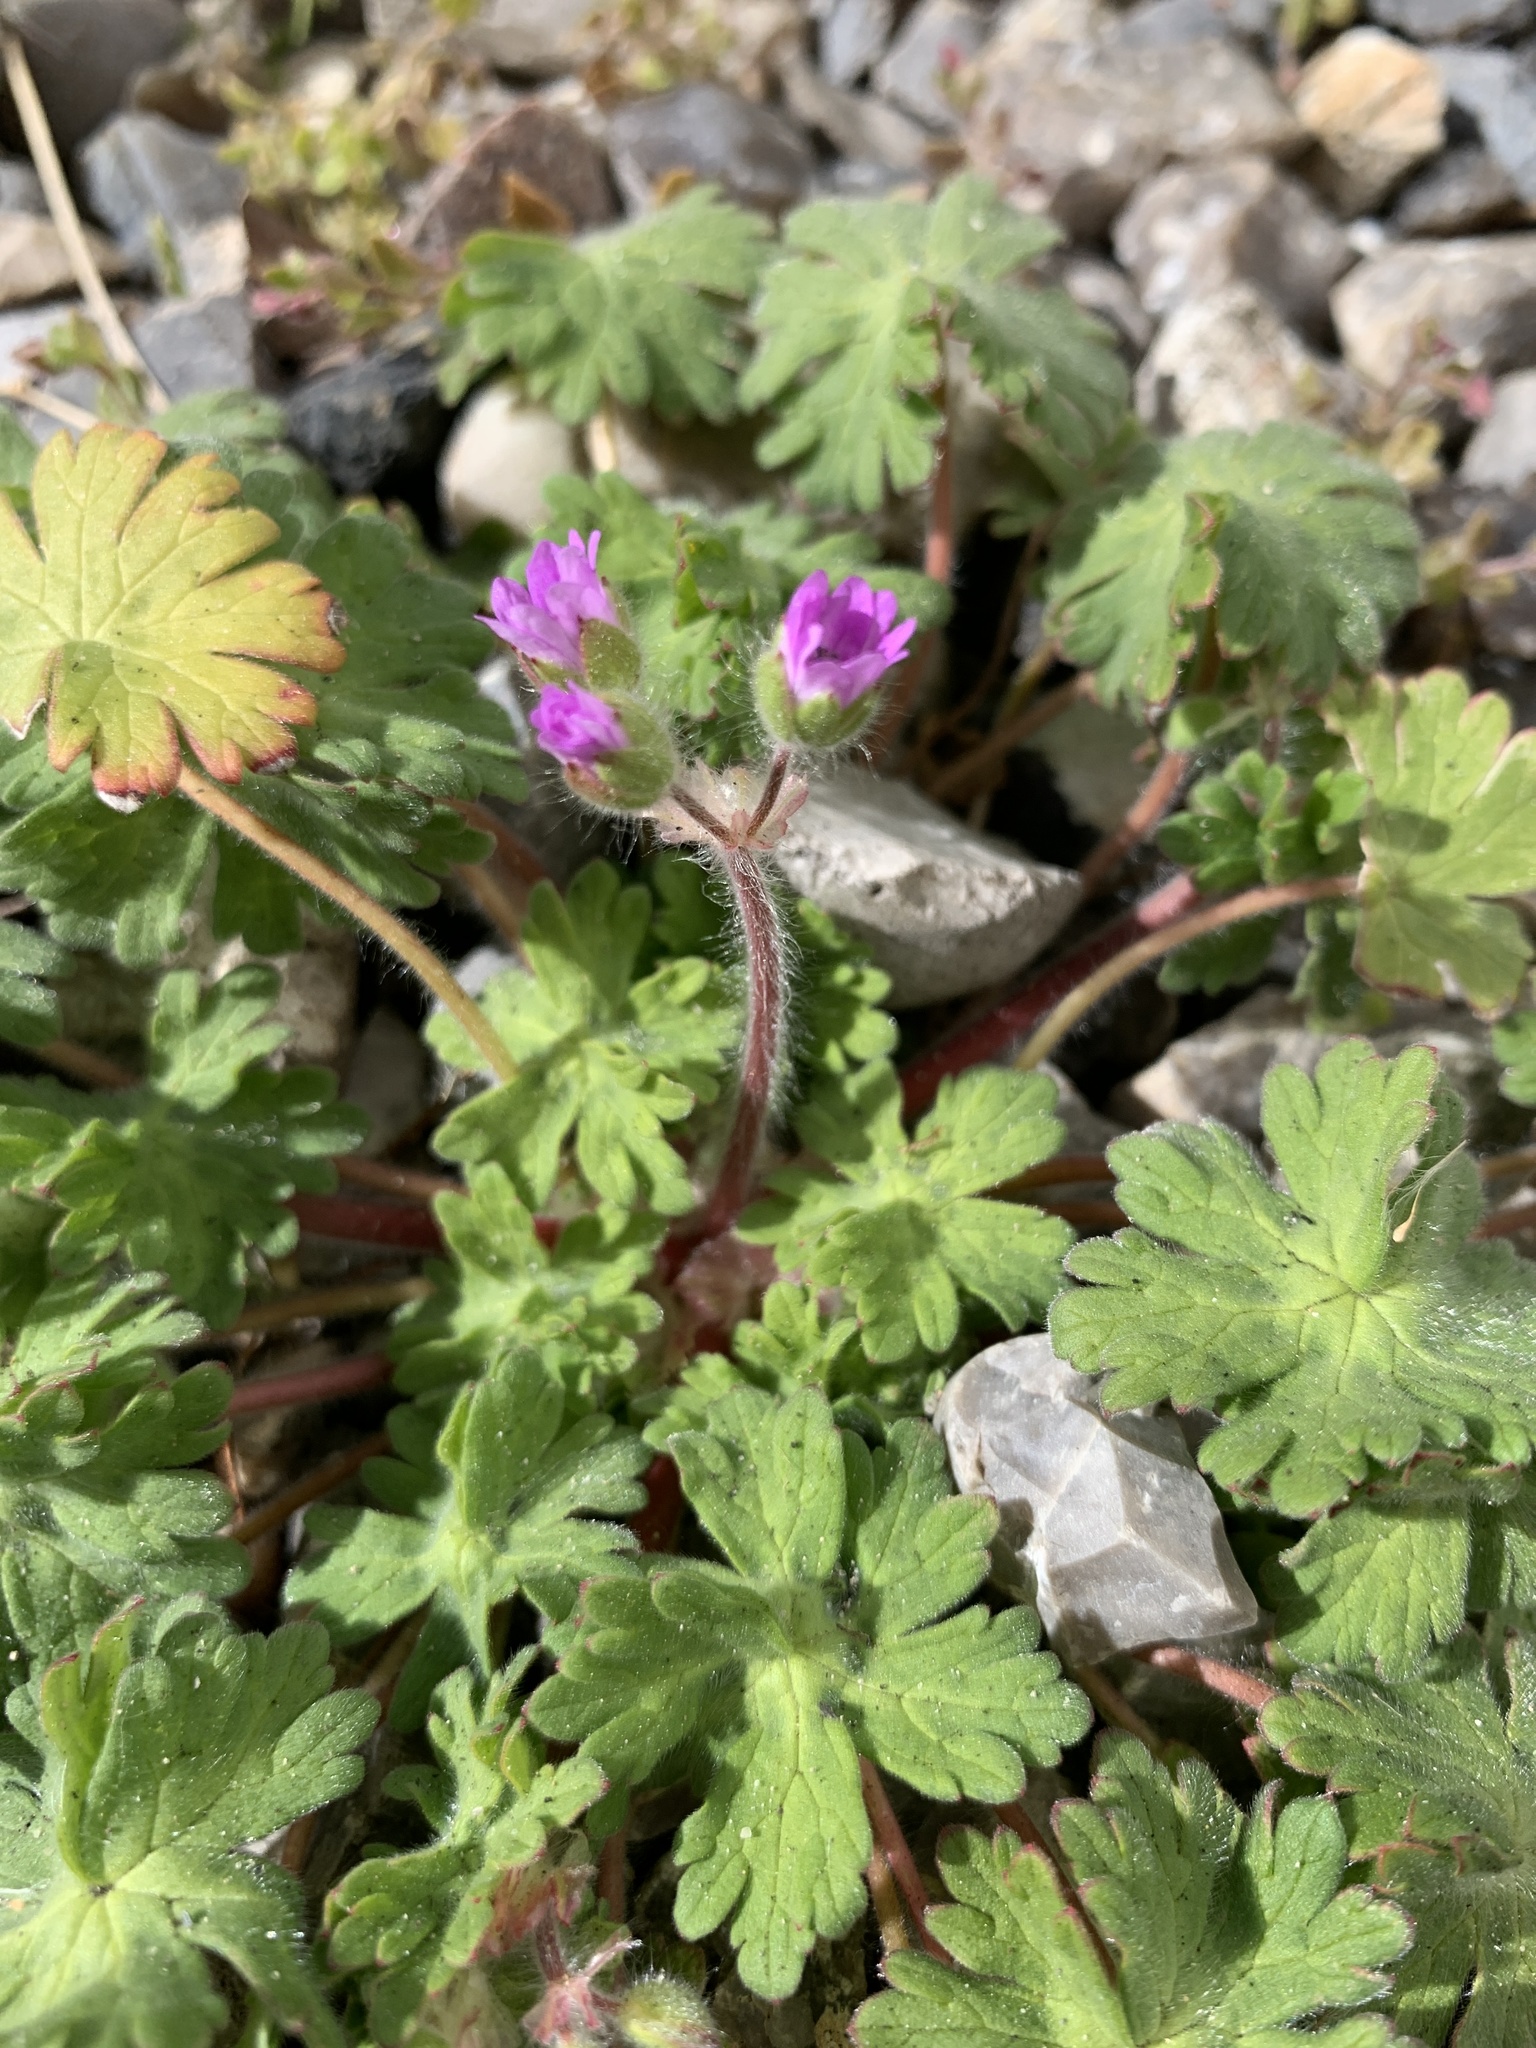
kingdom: Plantae
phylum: Tracheophyta
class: Magnoliopsida
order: Geraniales
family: Geraniaceae
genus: Geranium
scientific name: Geranium pusillum
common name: Small geranium
